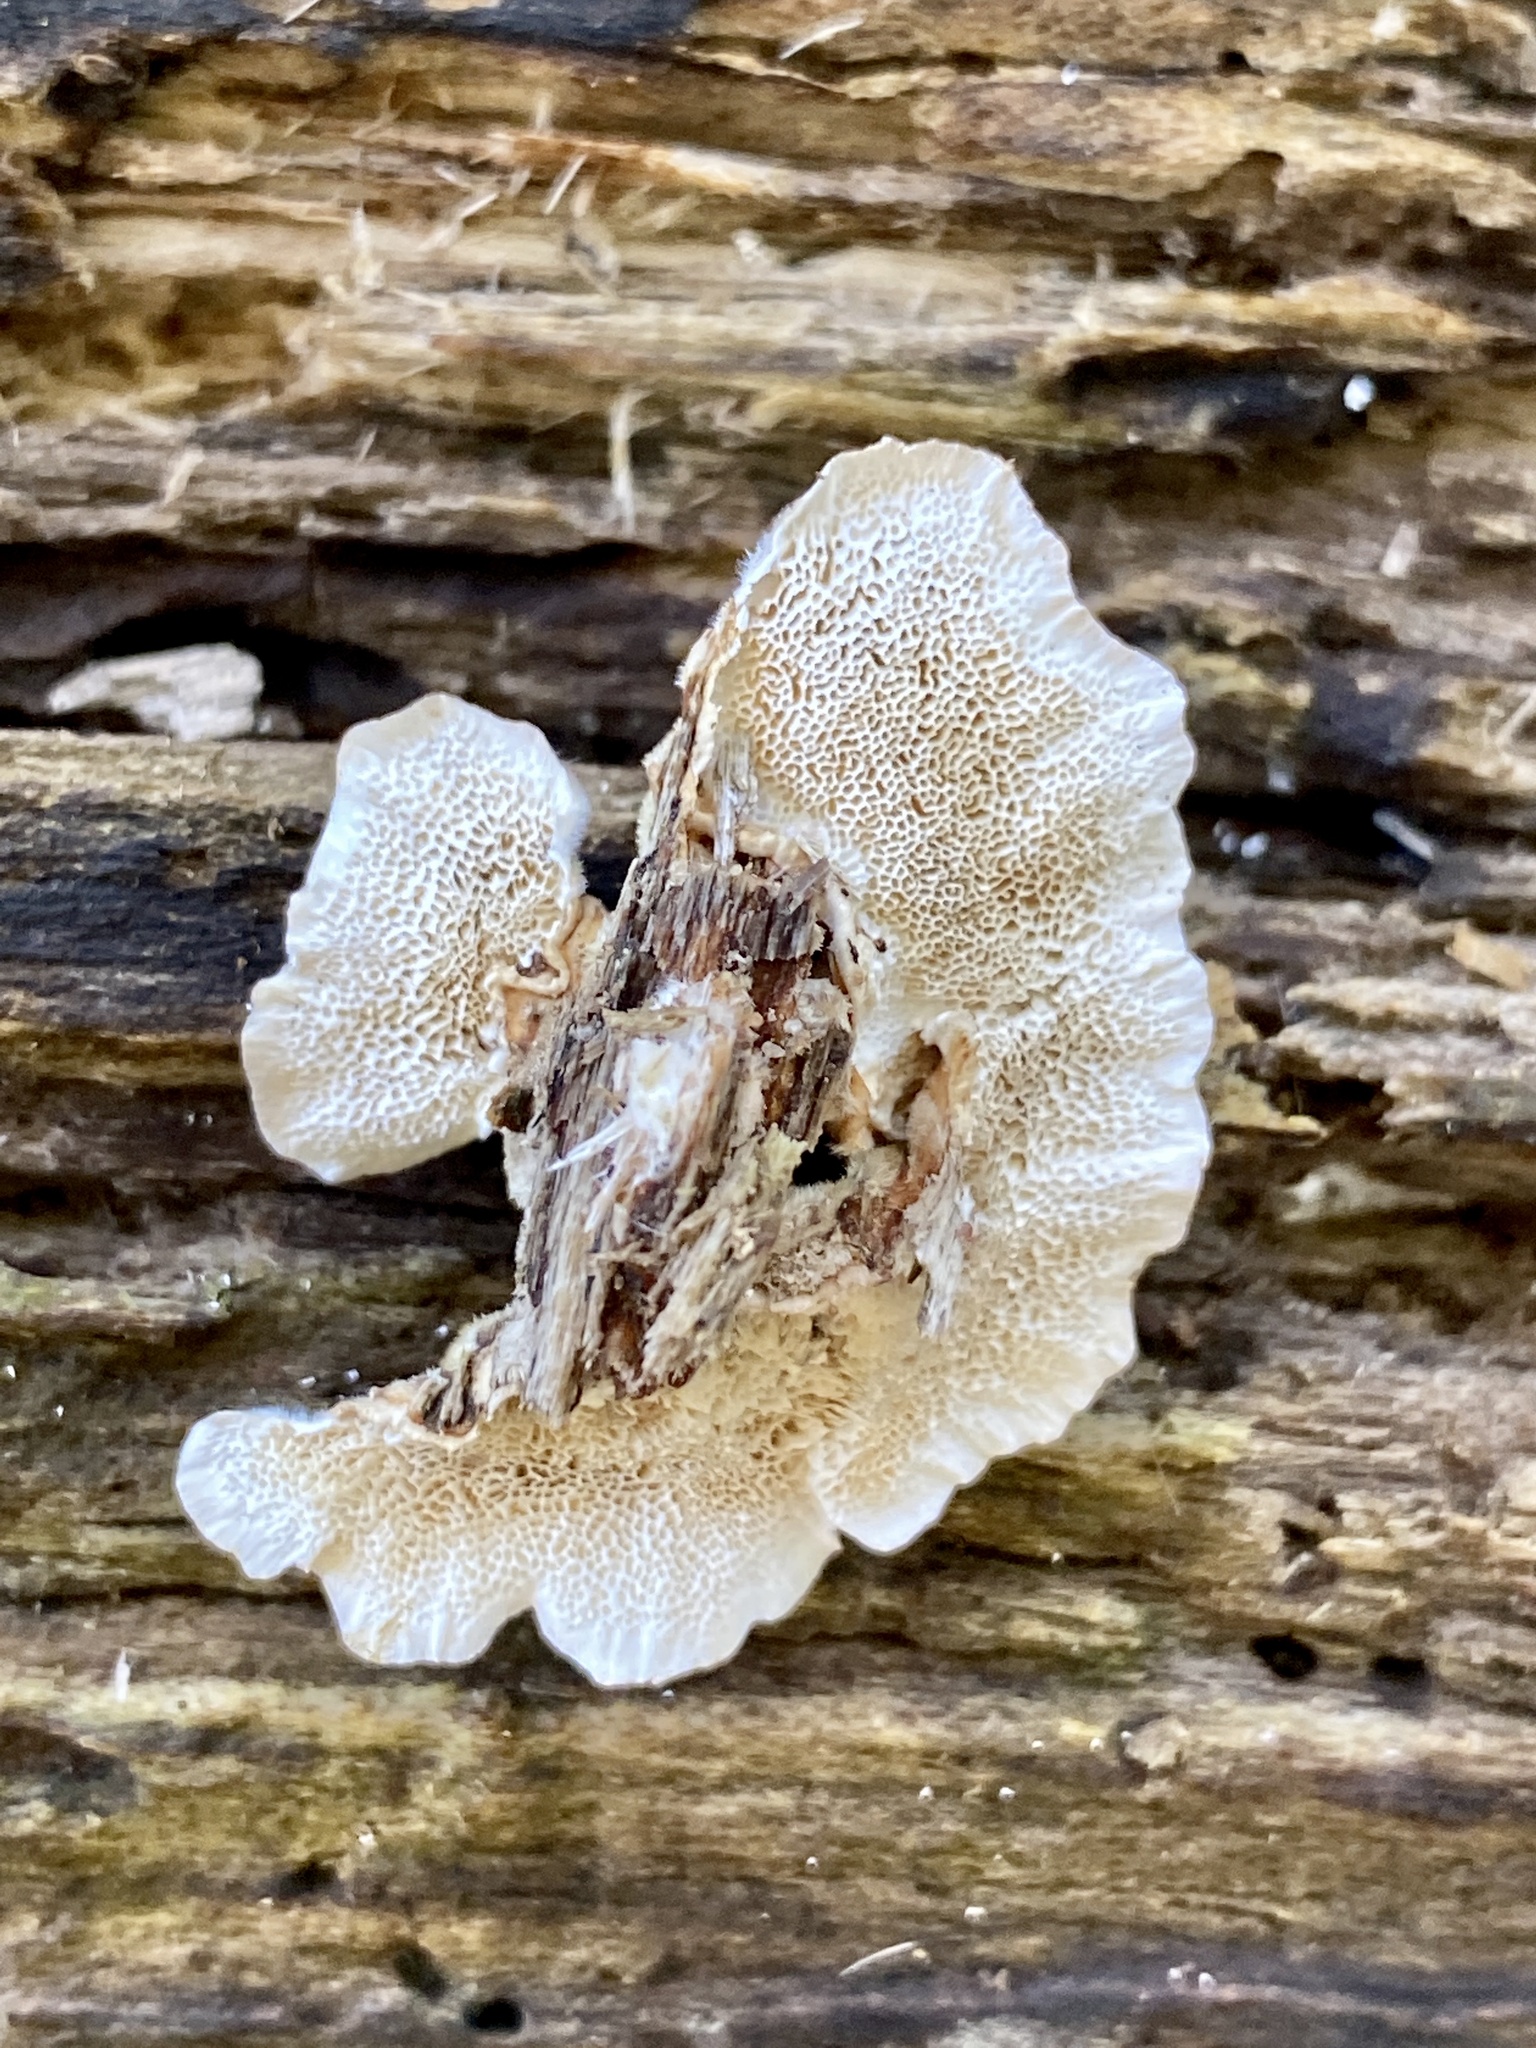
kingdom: Fungi
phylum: Basidiomycota
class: Agaricomycetes
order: Polyporales
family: Polyporaceae
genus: Trametes
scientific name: Trametes versicolor
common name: Turkeytail
